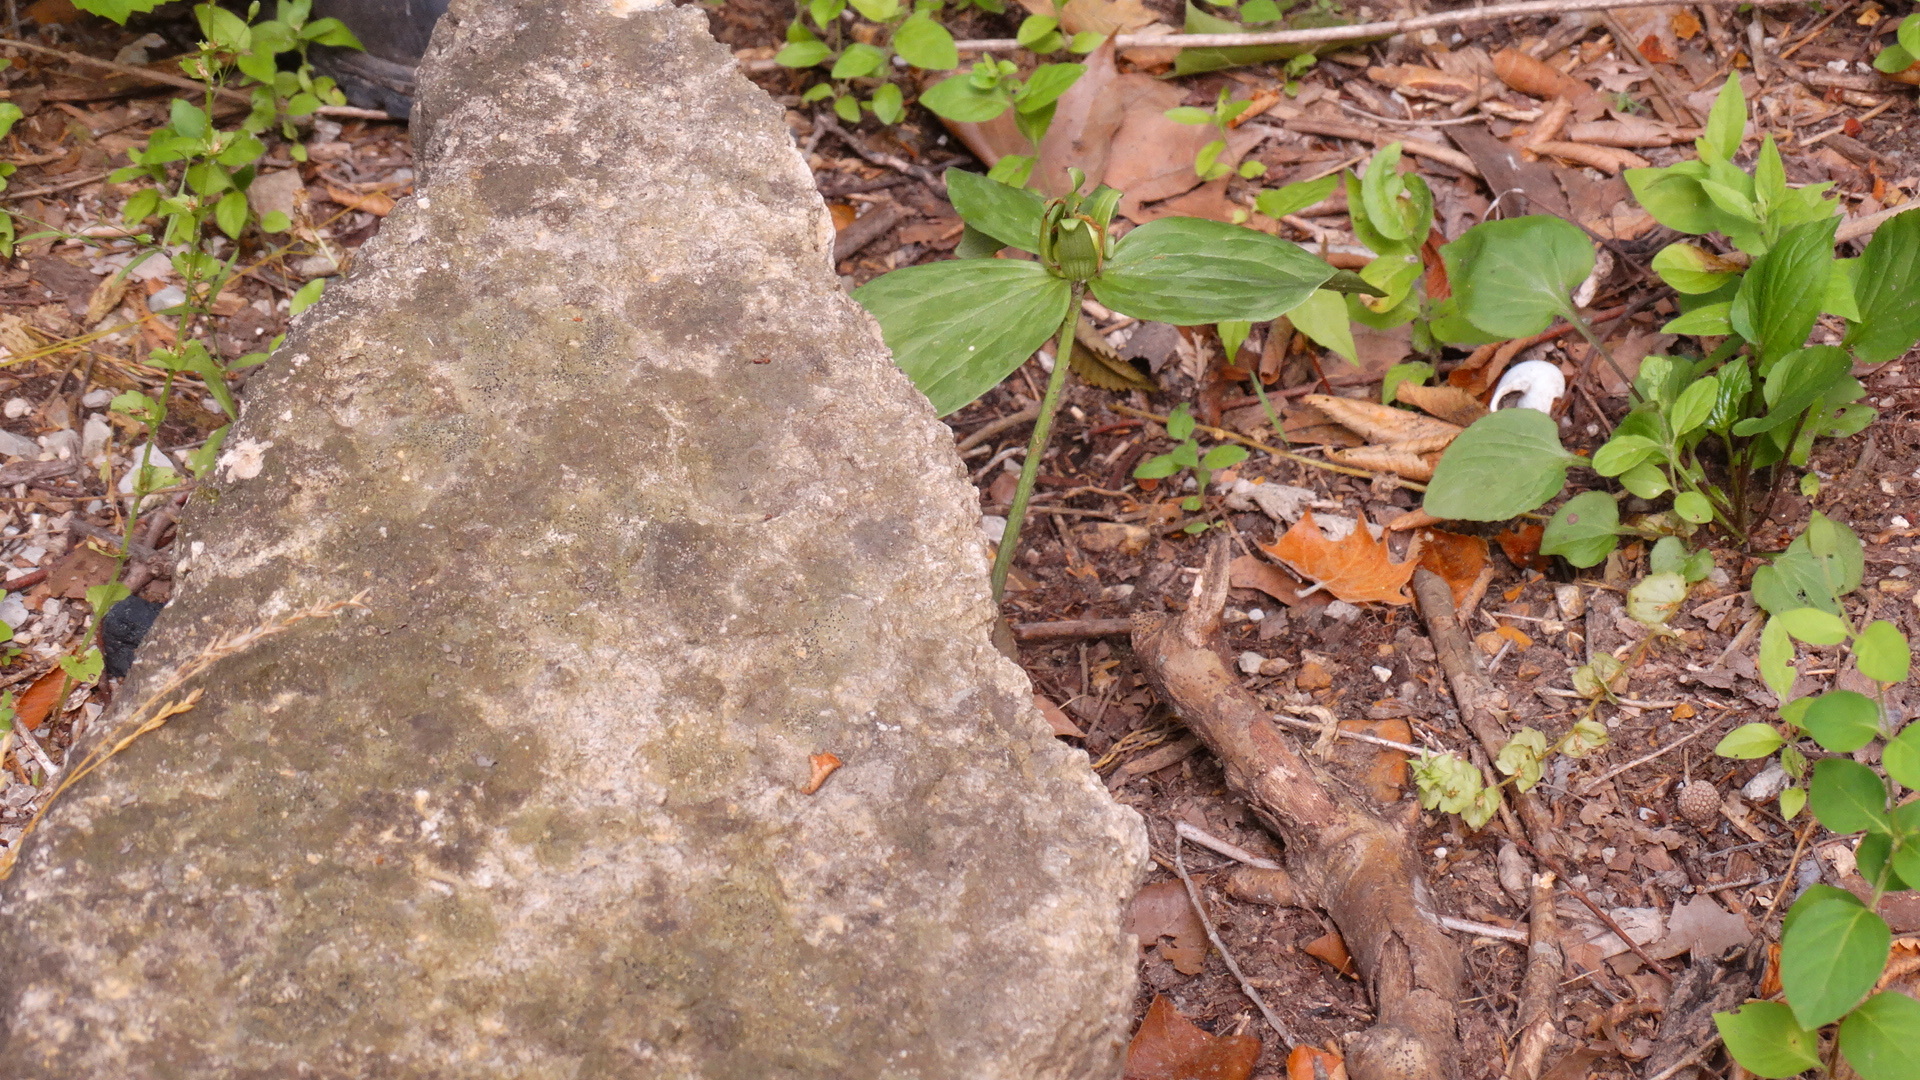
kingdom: Plantae
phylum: Tracheophyta
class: Liliopsida
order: Liliales
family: Melanthiaceae
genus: Trillium
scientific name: Trillium viride
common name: Green trillium
